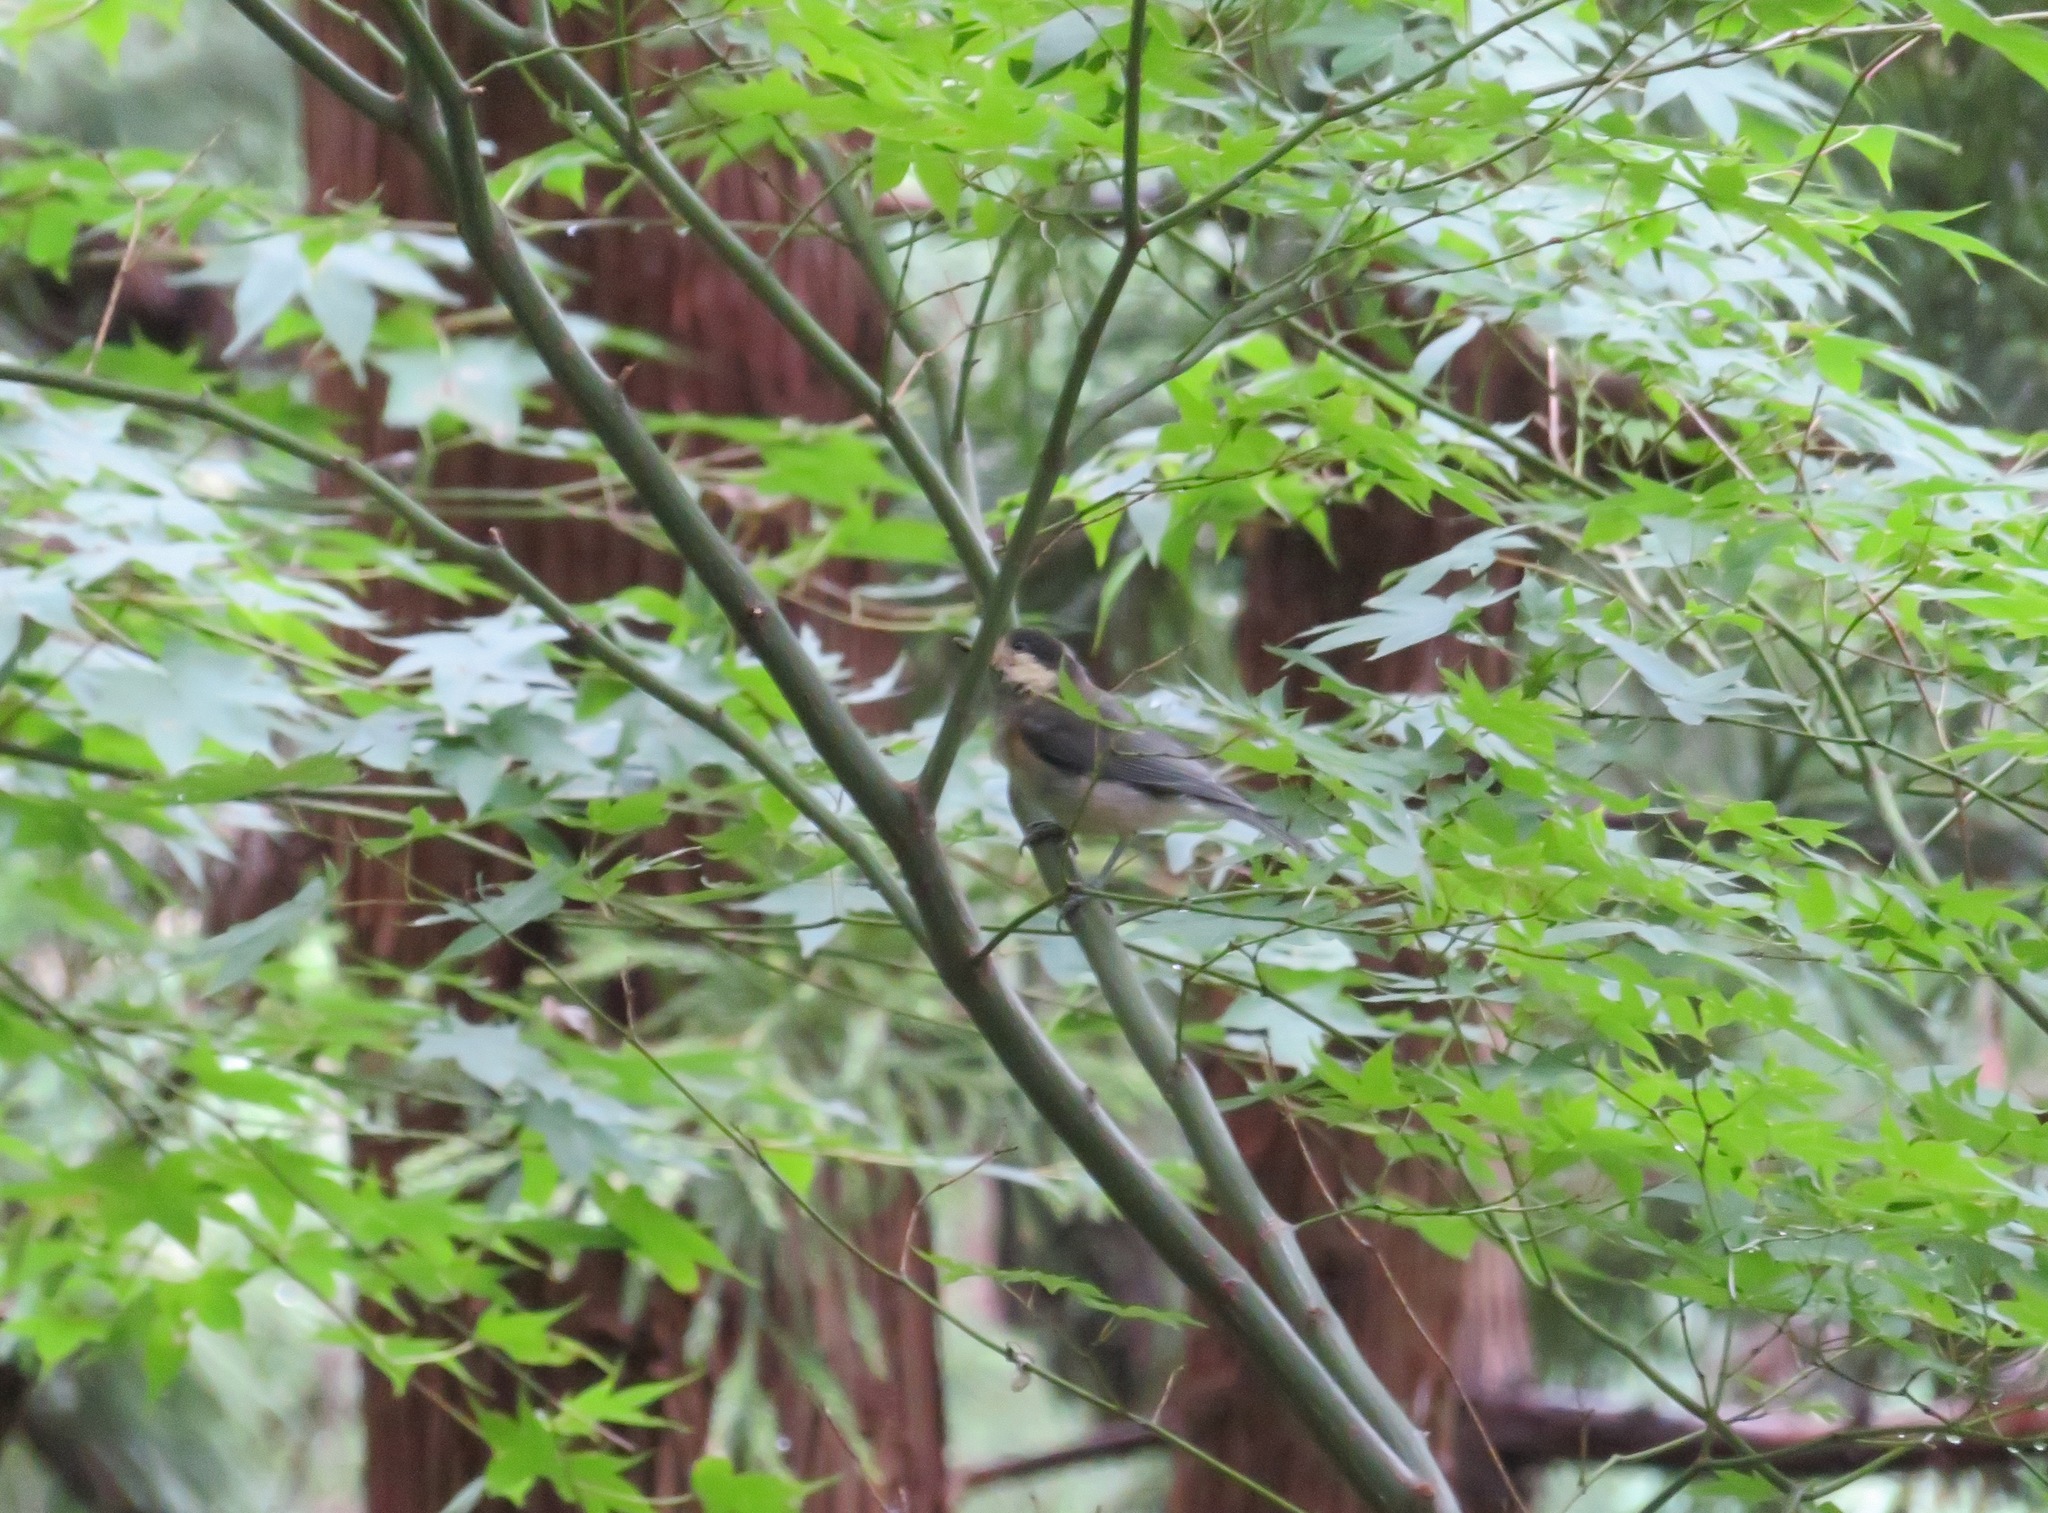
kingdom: Animalia
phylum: Chordata
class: Aves
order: Passeriformes
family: Paridae
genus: Poecile
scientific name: Poecile varius
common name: Varied tit
